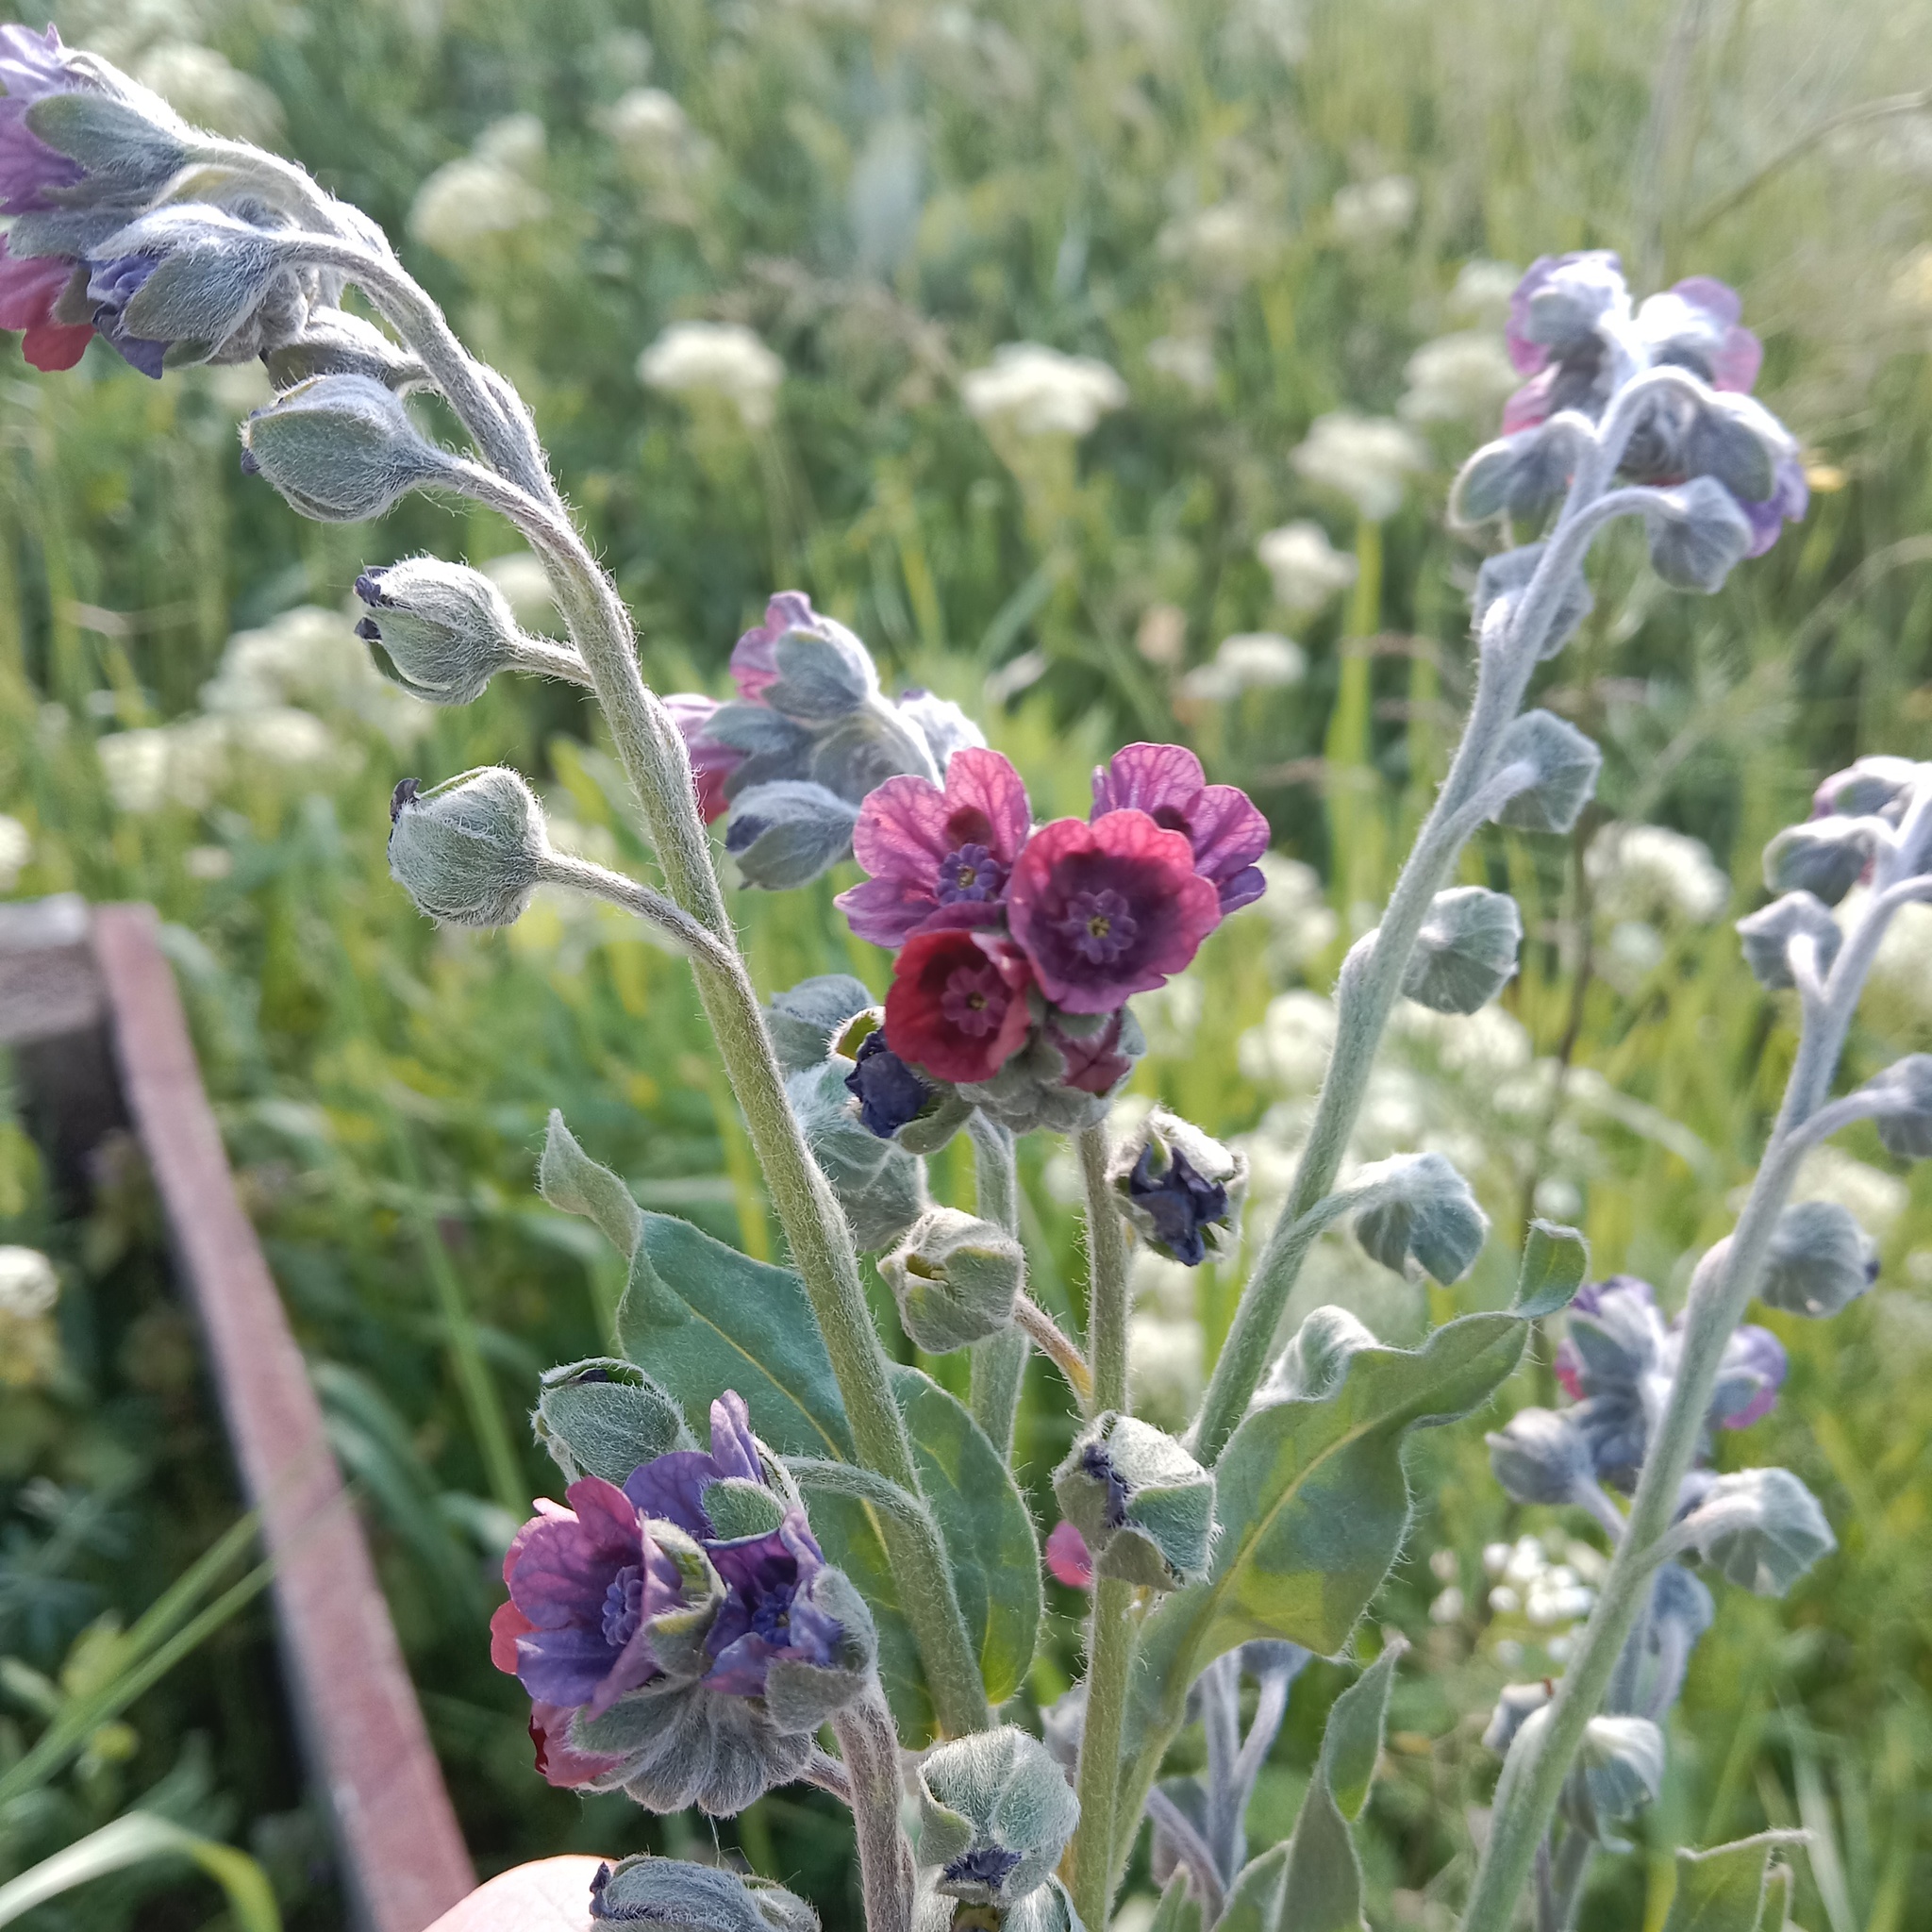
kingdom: Plantae
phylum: Tracheophyta
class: Magnoliopsida
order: Boraginales
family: Boraginaceae
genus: Cynoglossum
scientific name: Cynoglossum officinale
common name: Hound's-tongue
